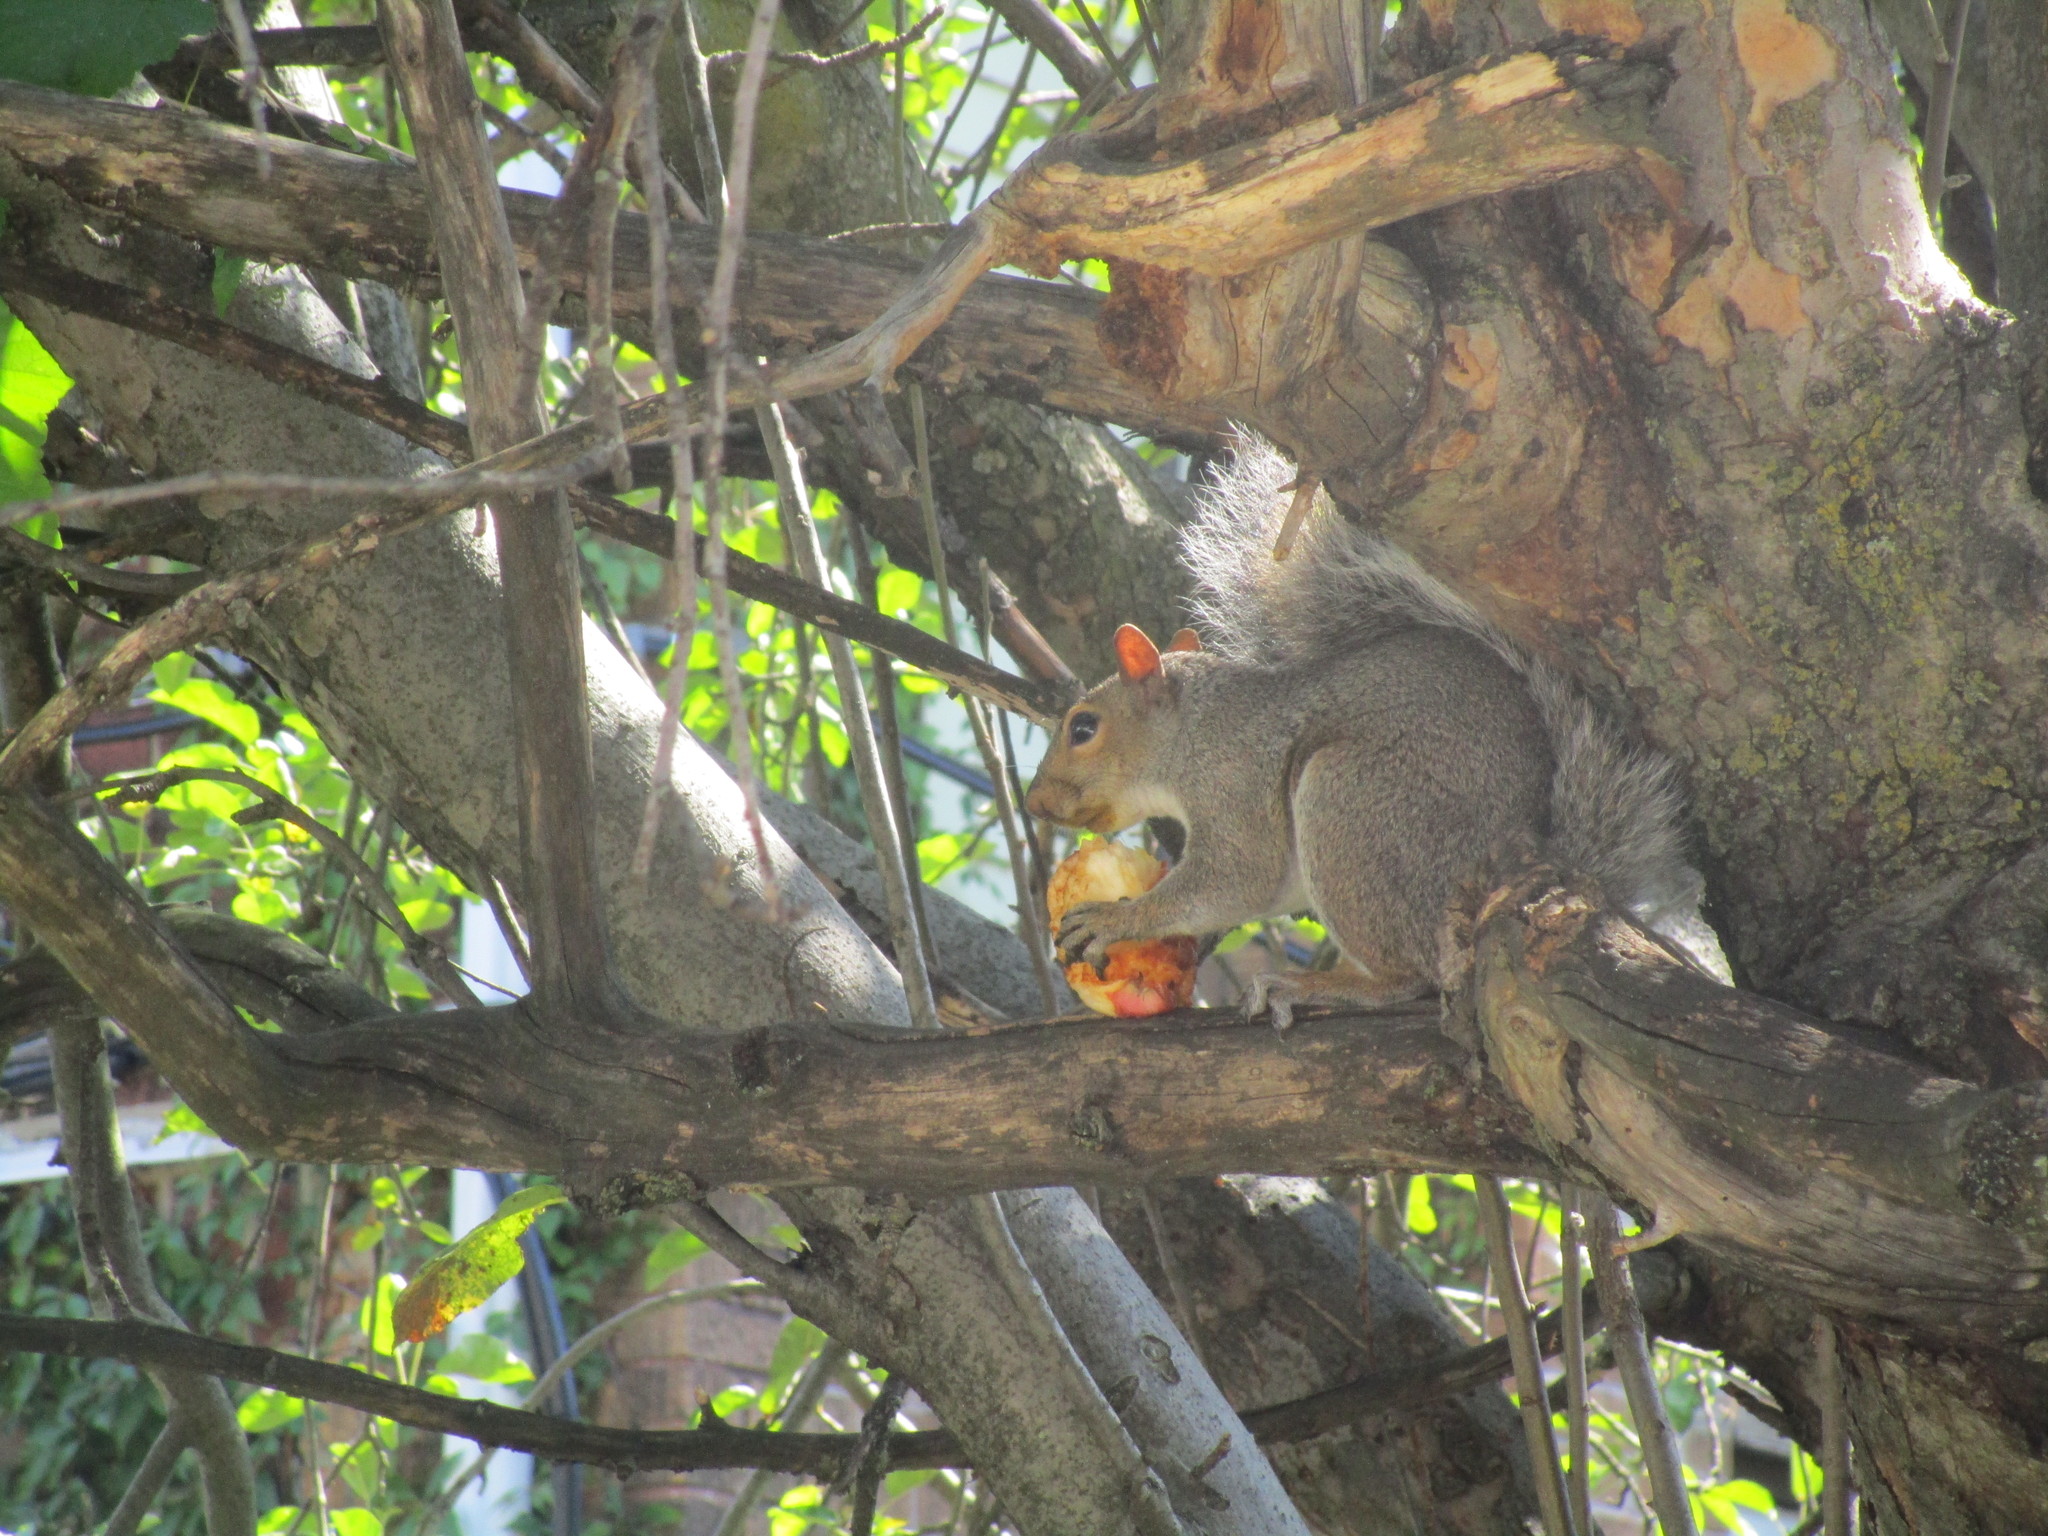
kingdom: Animalia
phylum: Chordata
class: Mammalia
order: Rodentia
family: Sciuridae
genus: Sciurus
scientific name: Sciurus carolinensis
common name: Eastern gray squirrel
